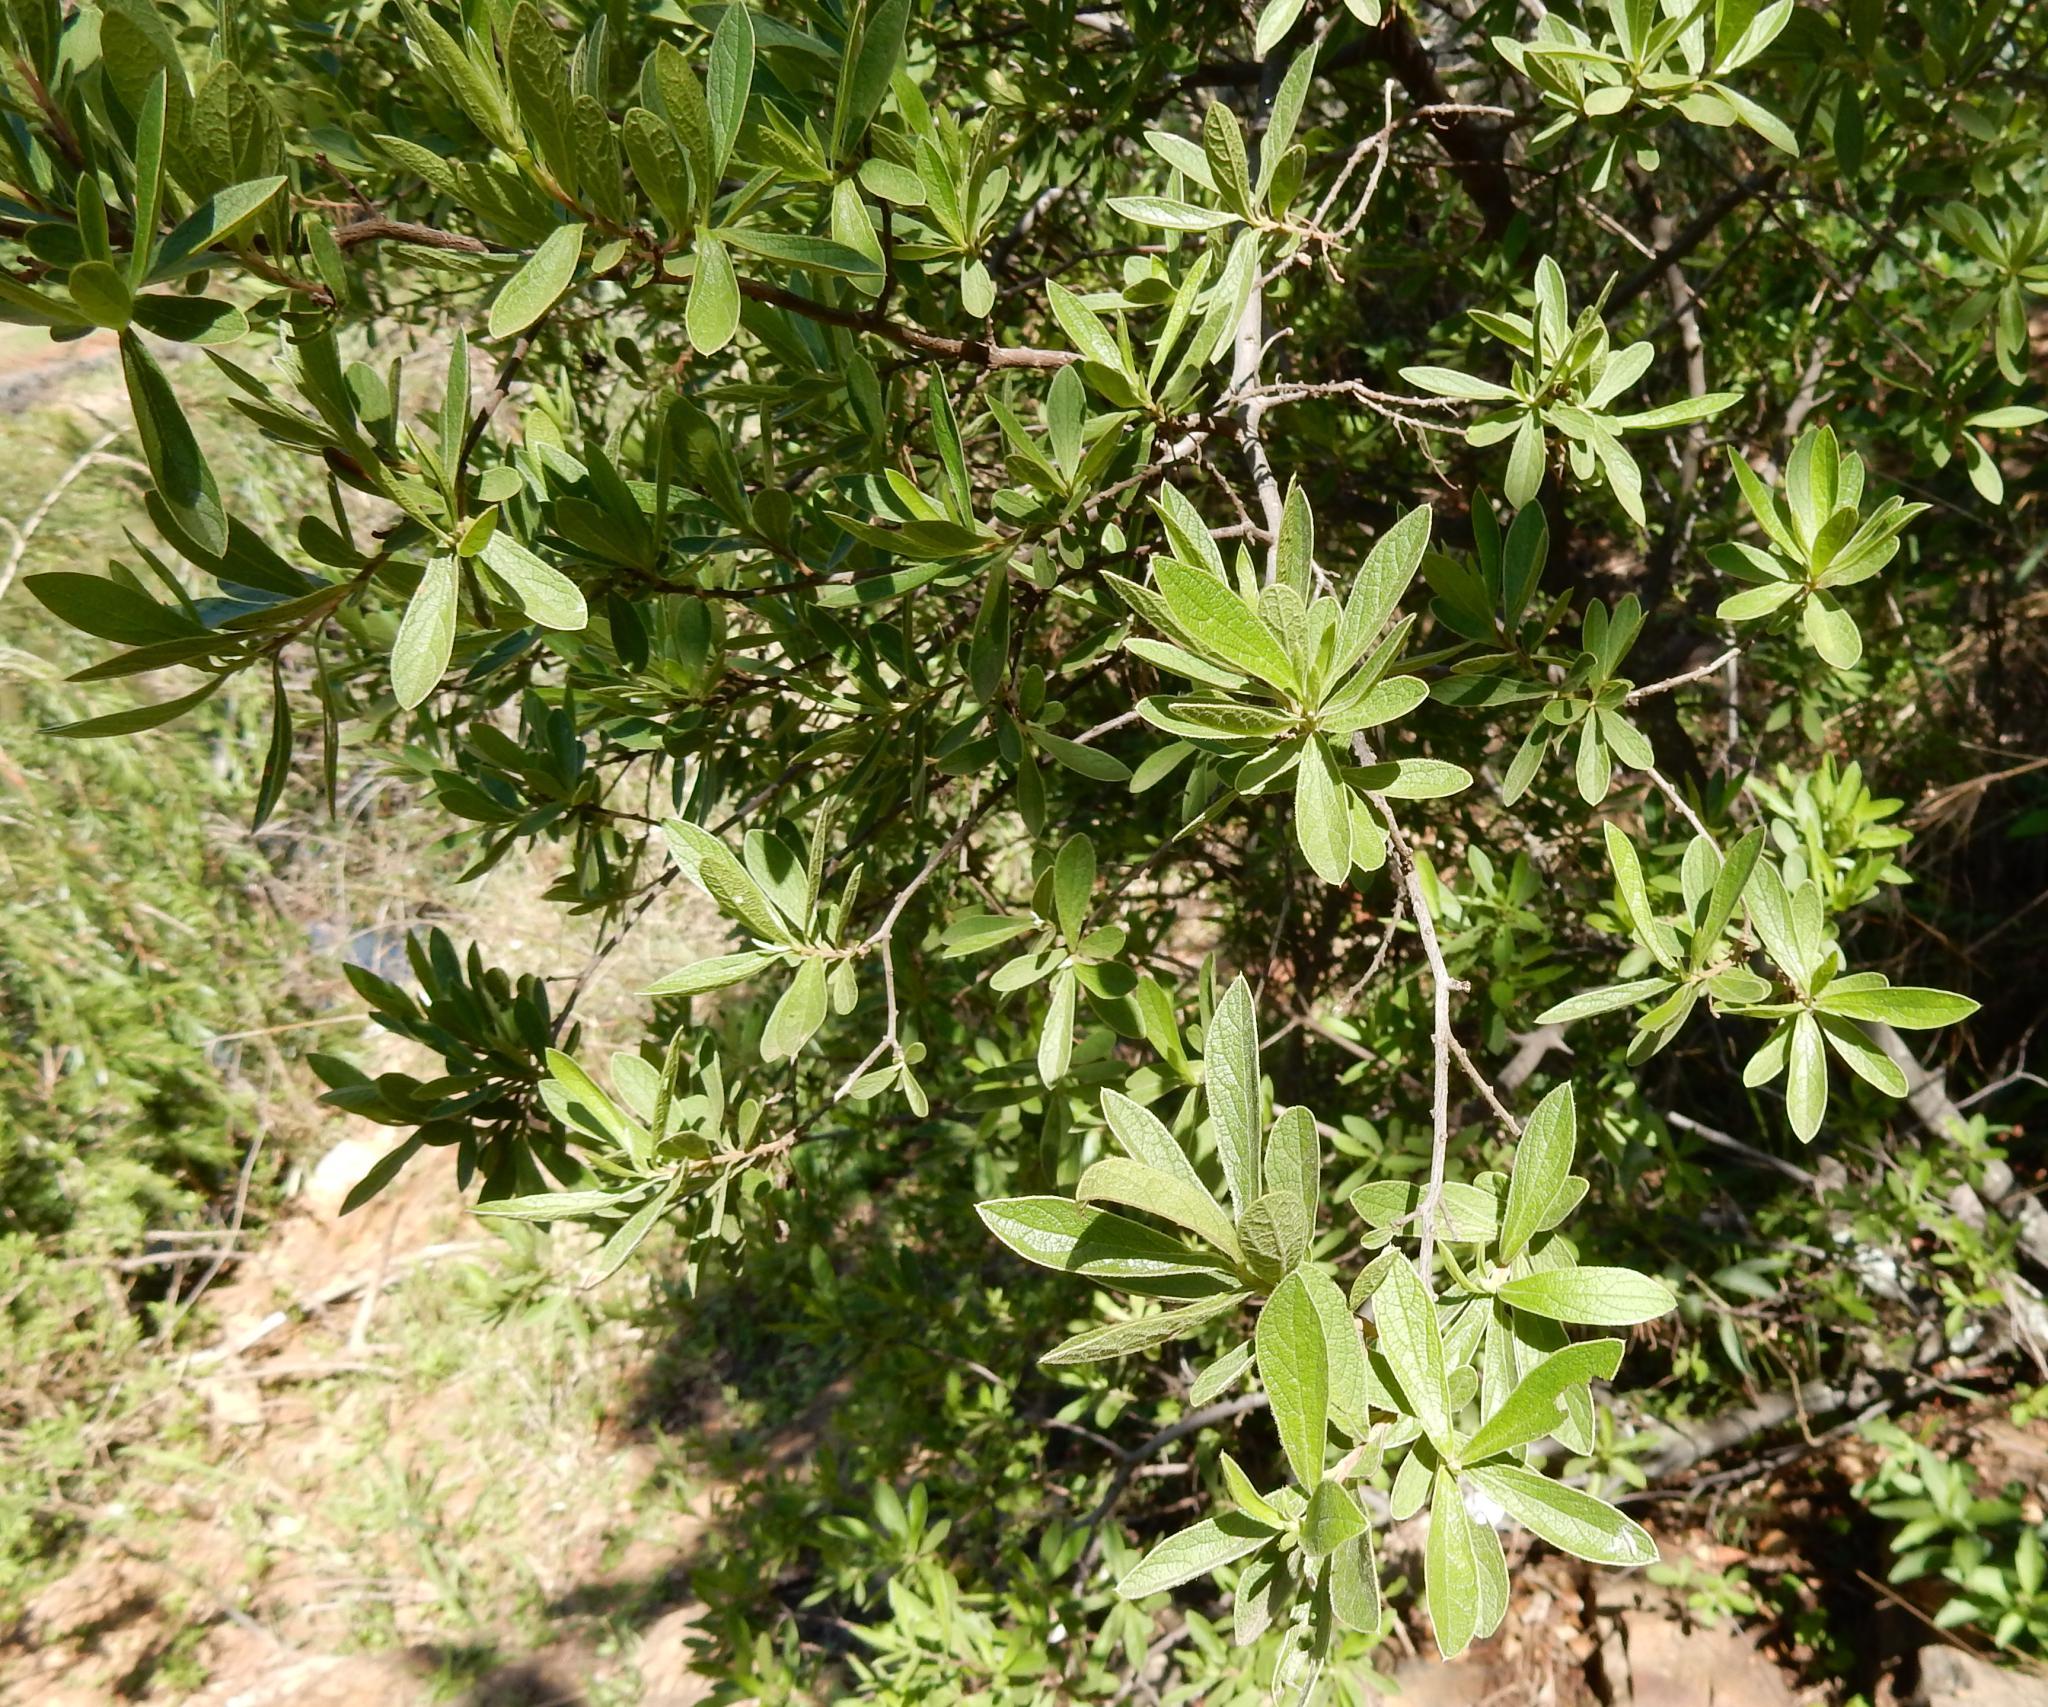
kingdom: Plantae
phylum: Tracheophyta
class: Magnoliopsida
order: Ericales
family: Ebenaceae
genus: Diospyros
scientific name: Diospyros lycioides
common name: Red star apple
